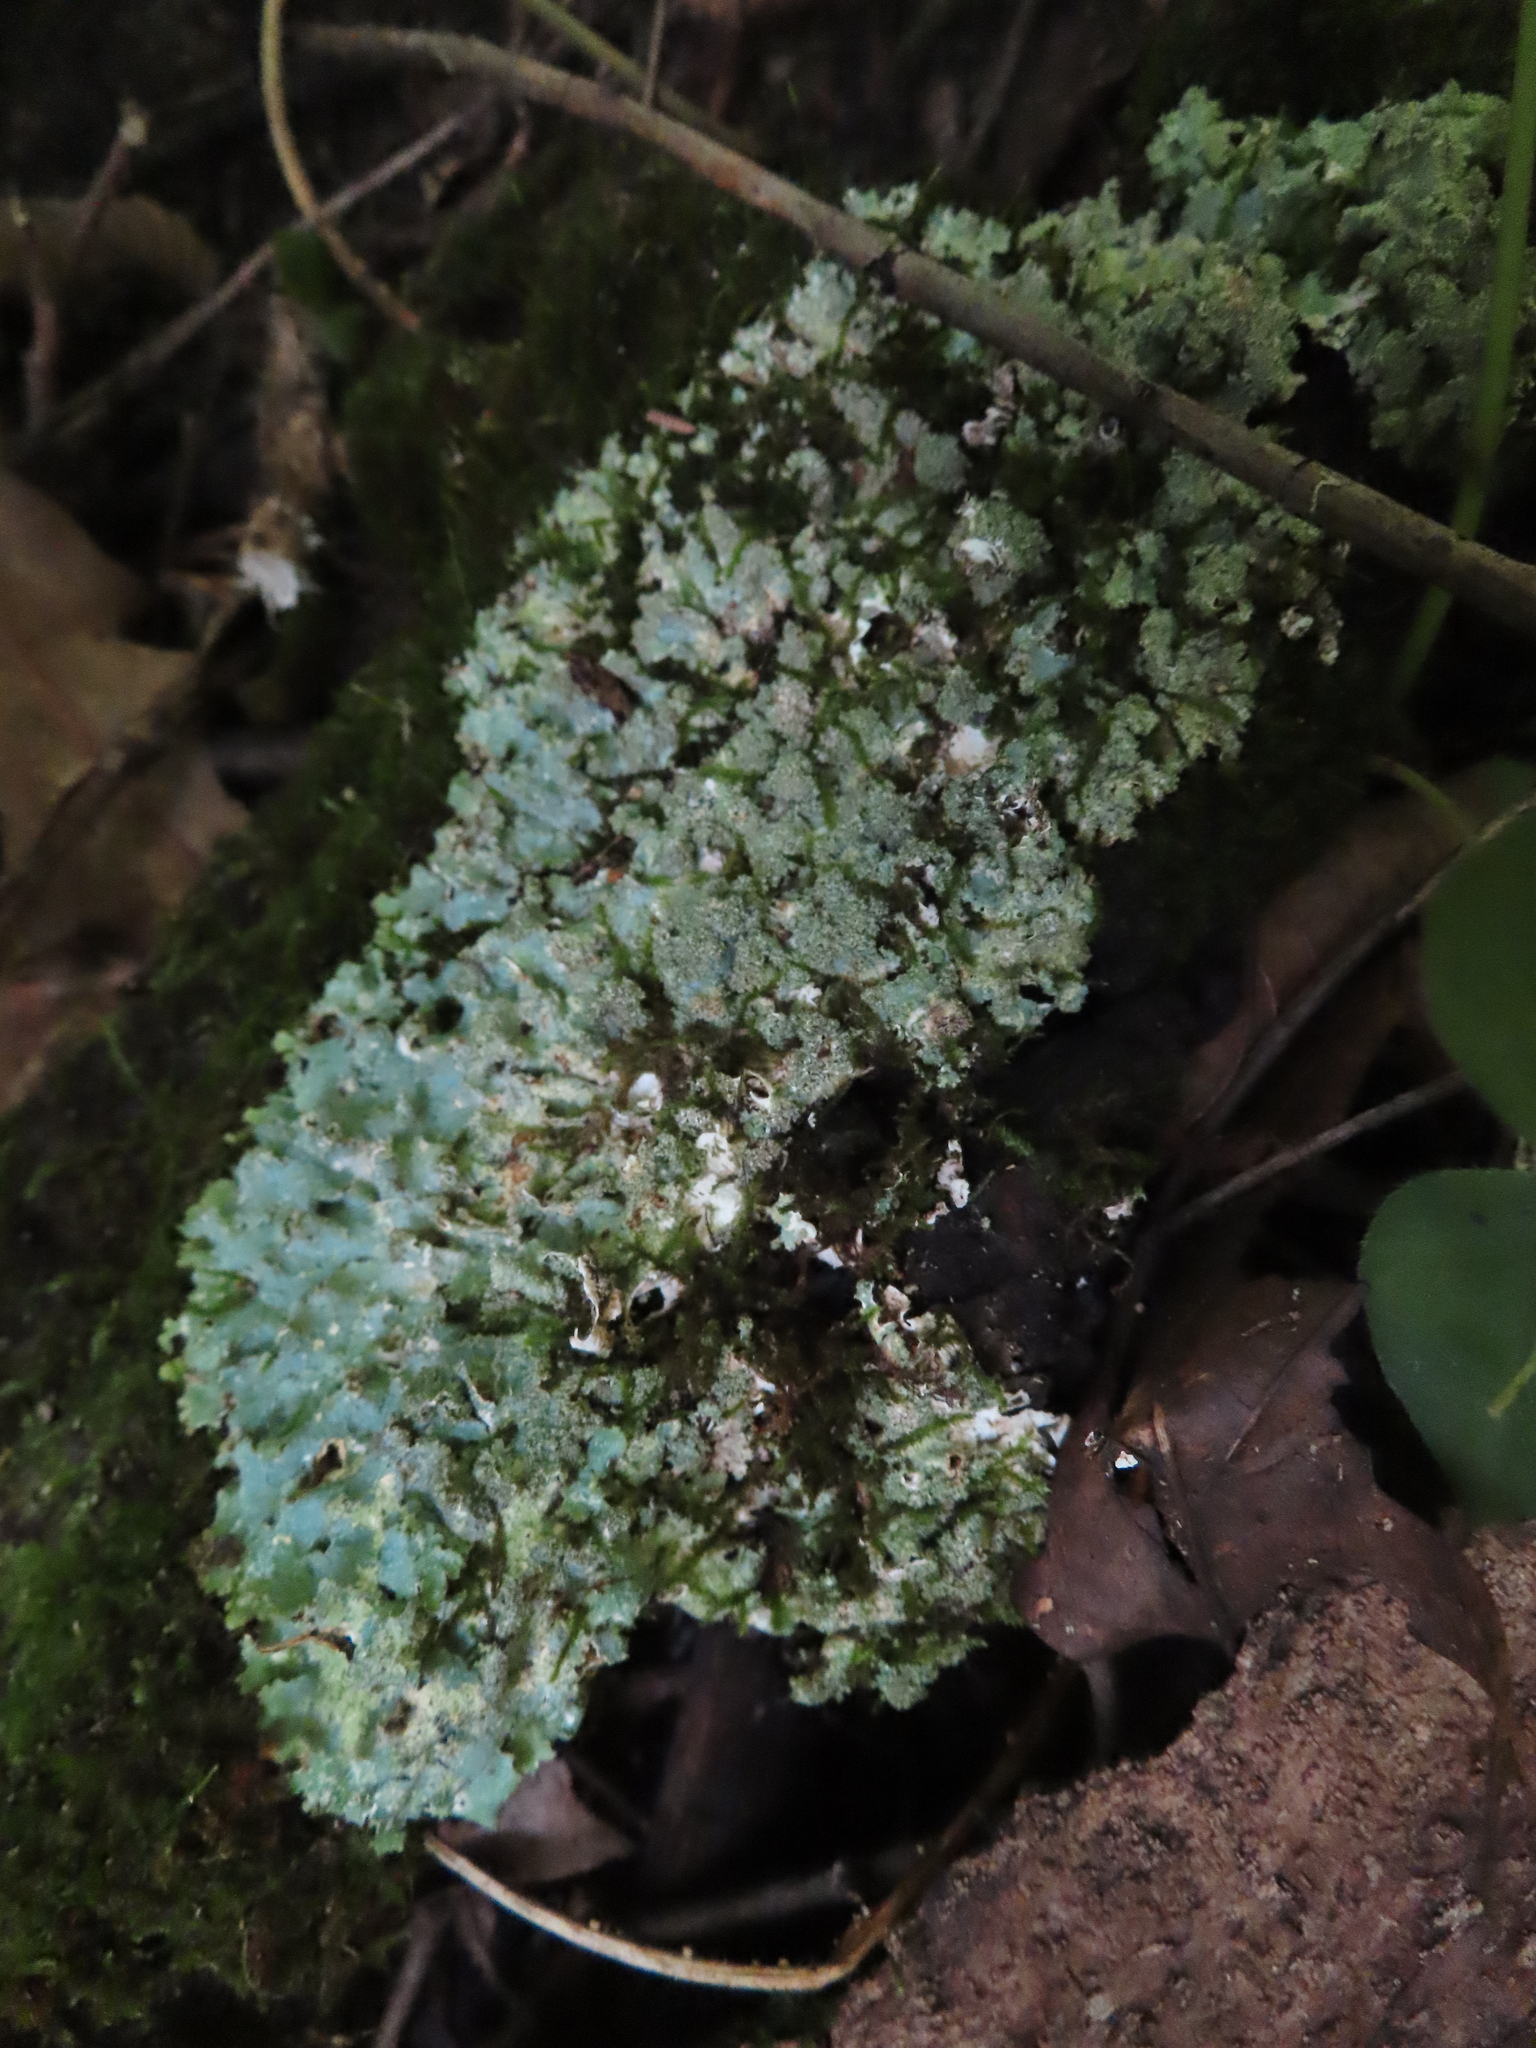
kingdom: Fungi
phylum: Ascomycota
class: Lecanoromycetes
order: Lecanorales
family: Parmeliaceae
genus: Punctelia
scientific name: Punctelia rudecta
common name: Rough speckled shield lichen
